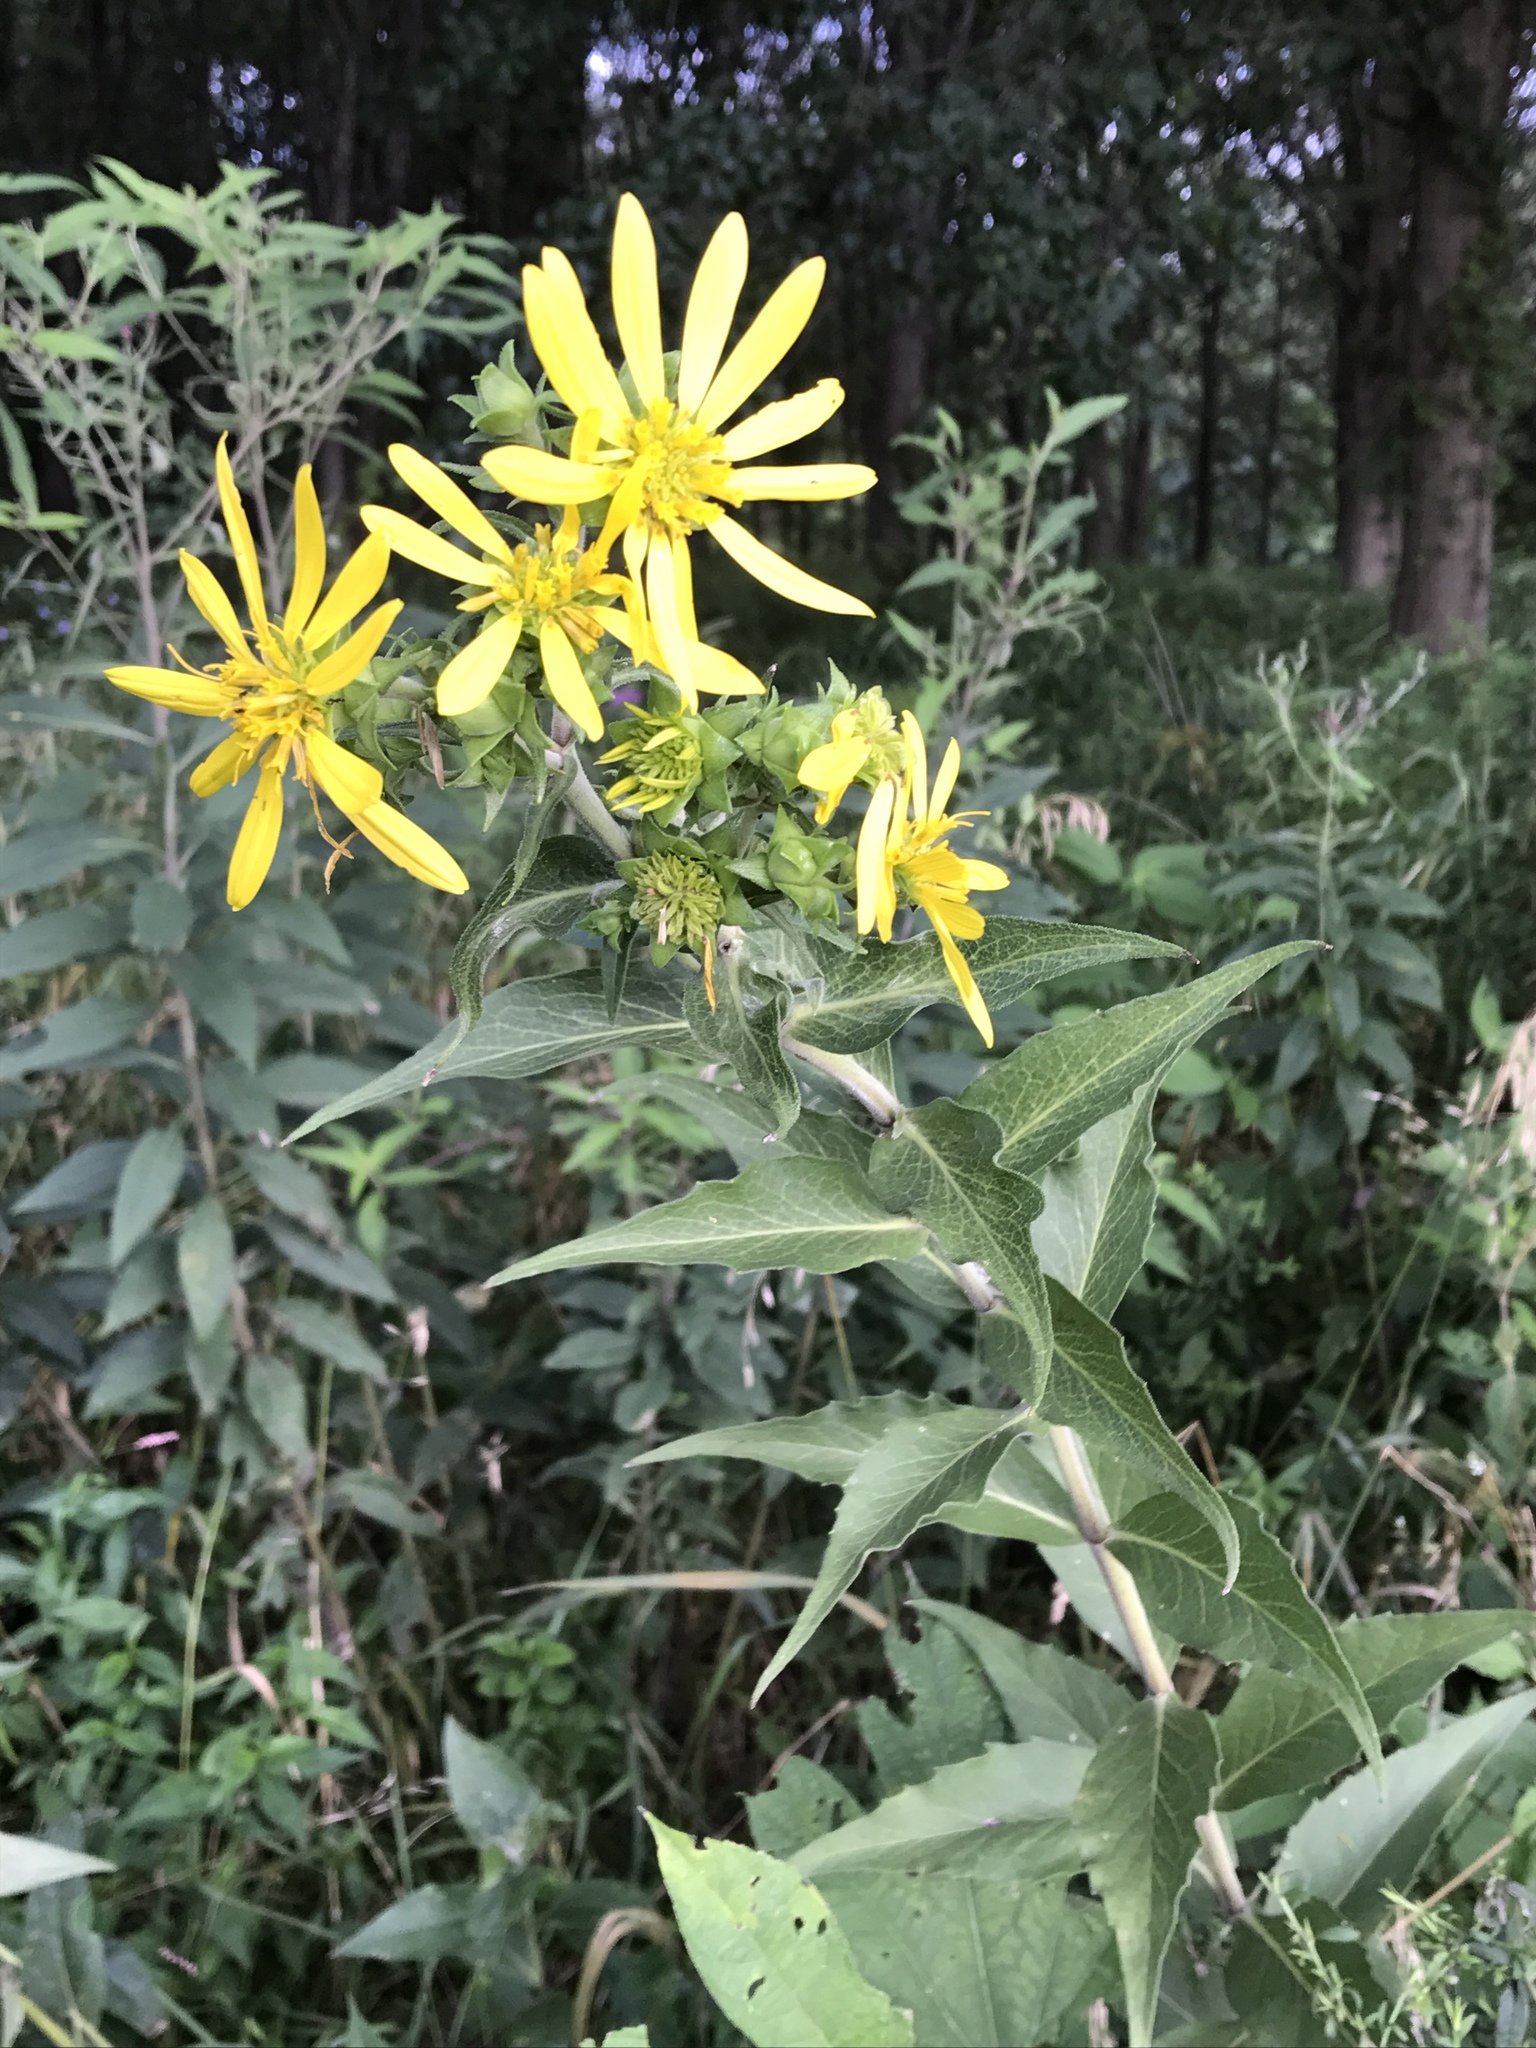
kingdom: Plantae
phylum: Tracheophyta
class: Magnoliopsida
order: Asterales
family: Asteraceae
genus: Silphium
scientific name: Silphium integrifolium
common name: Whole-leaf rosinweed
